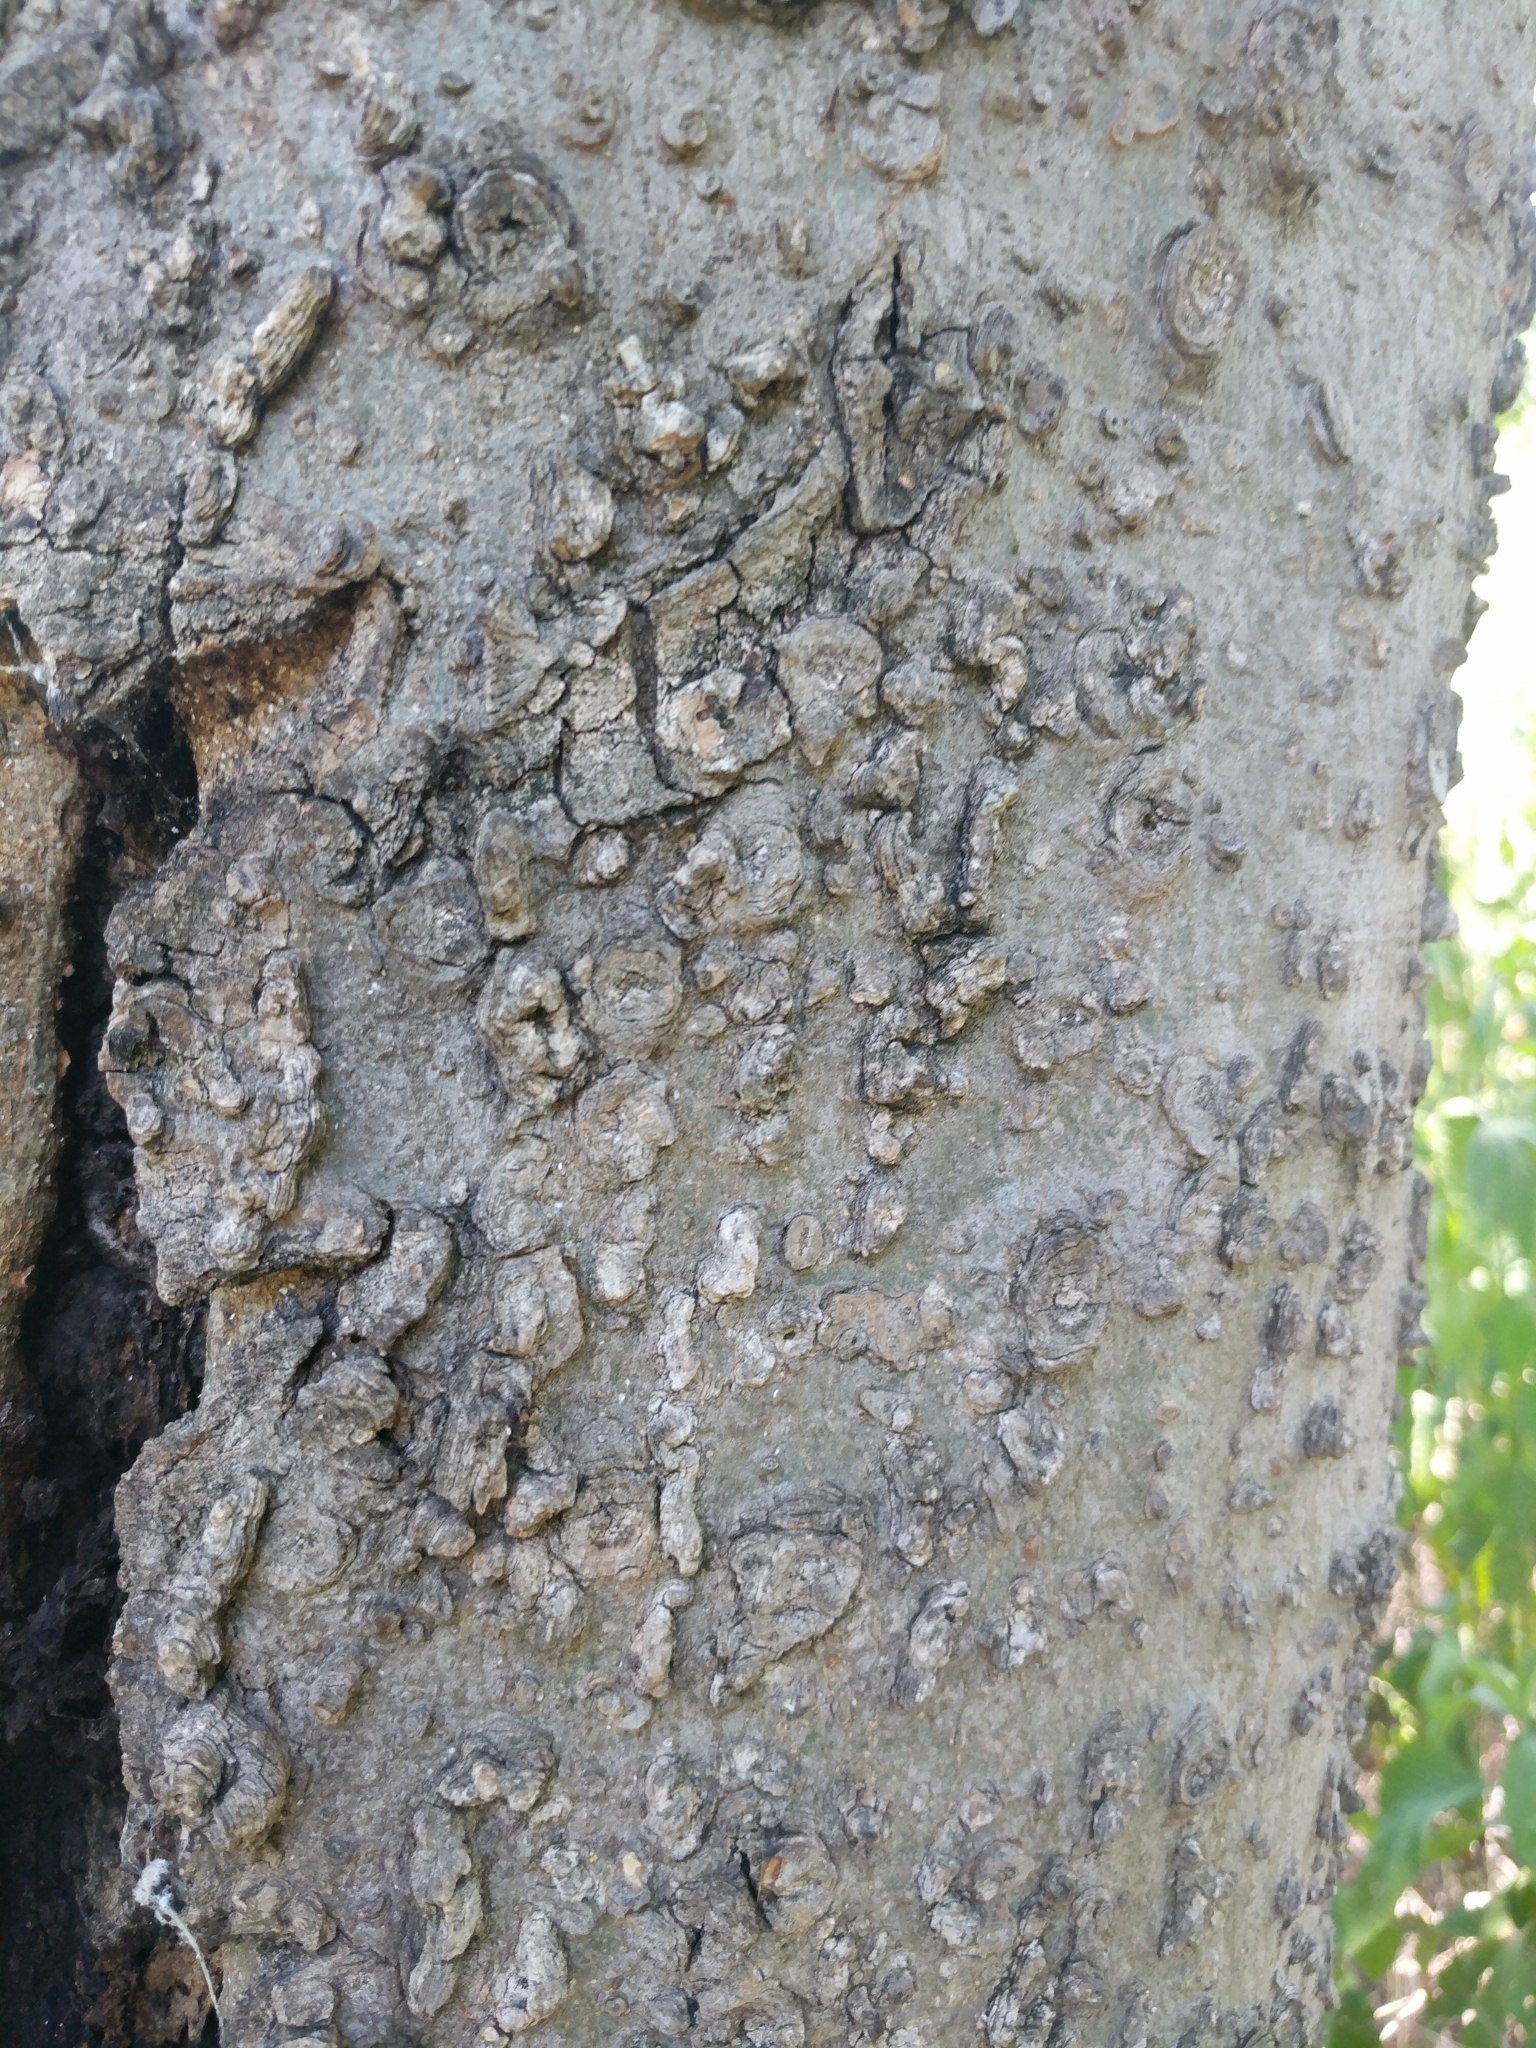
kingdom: Plantae
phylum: Tracheophyta
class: Magnoliopsida
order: Rosales
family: Cannabaceae
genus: Celtis
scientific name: Celtis laevigata
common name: Sugarberry
